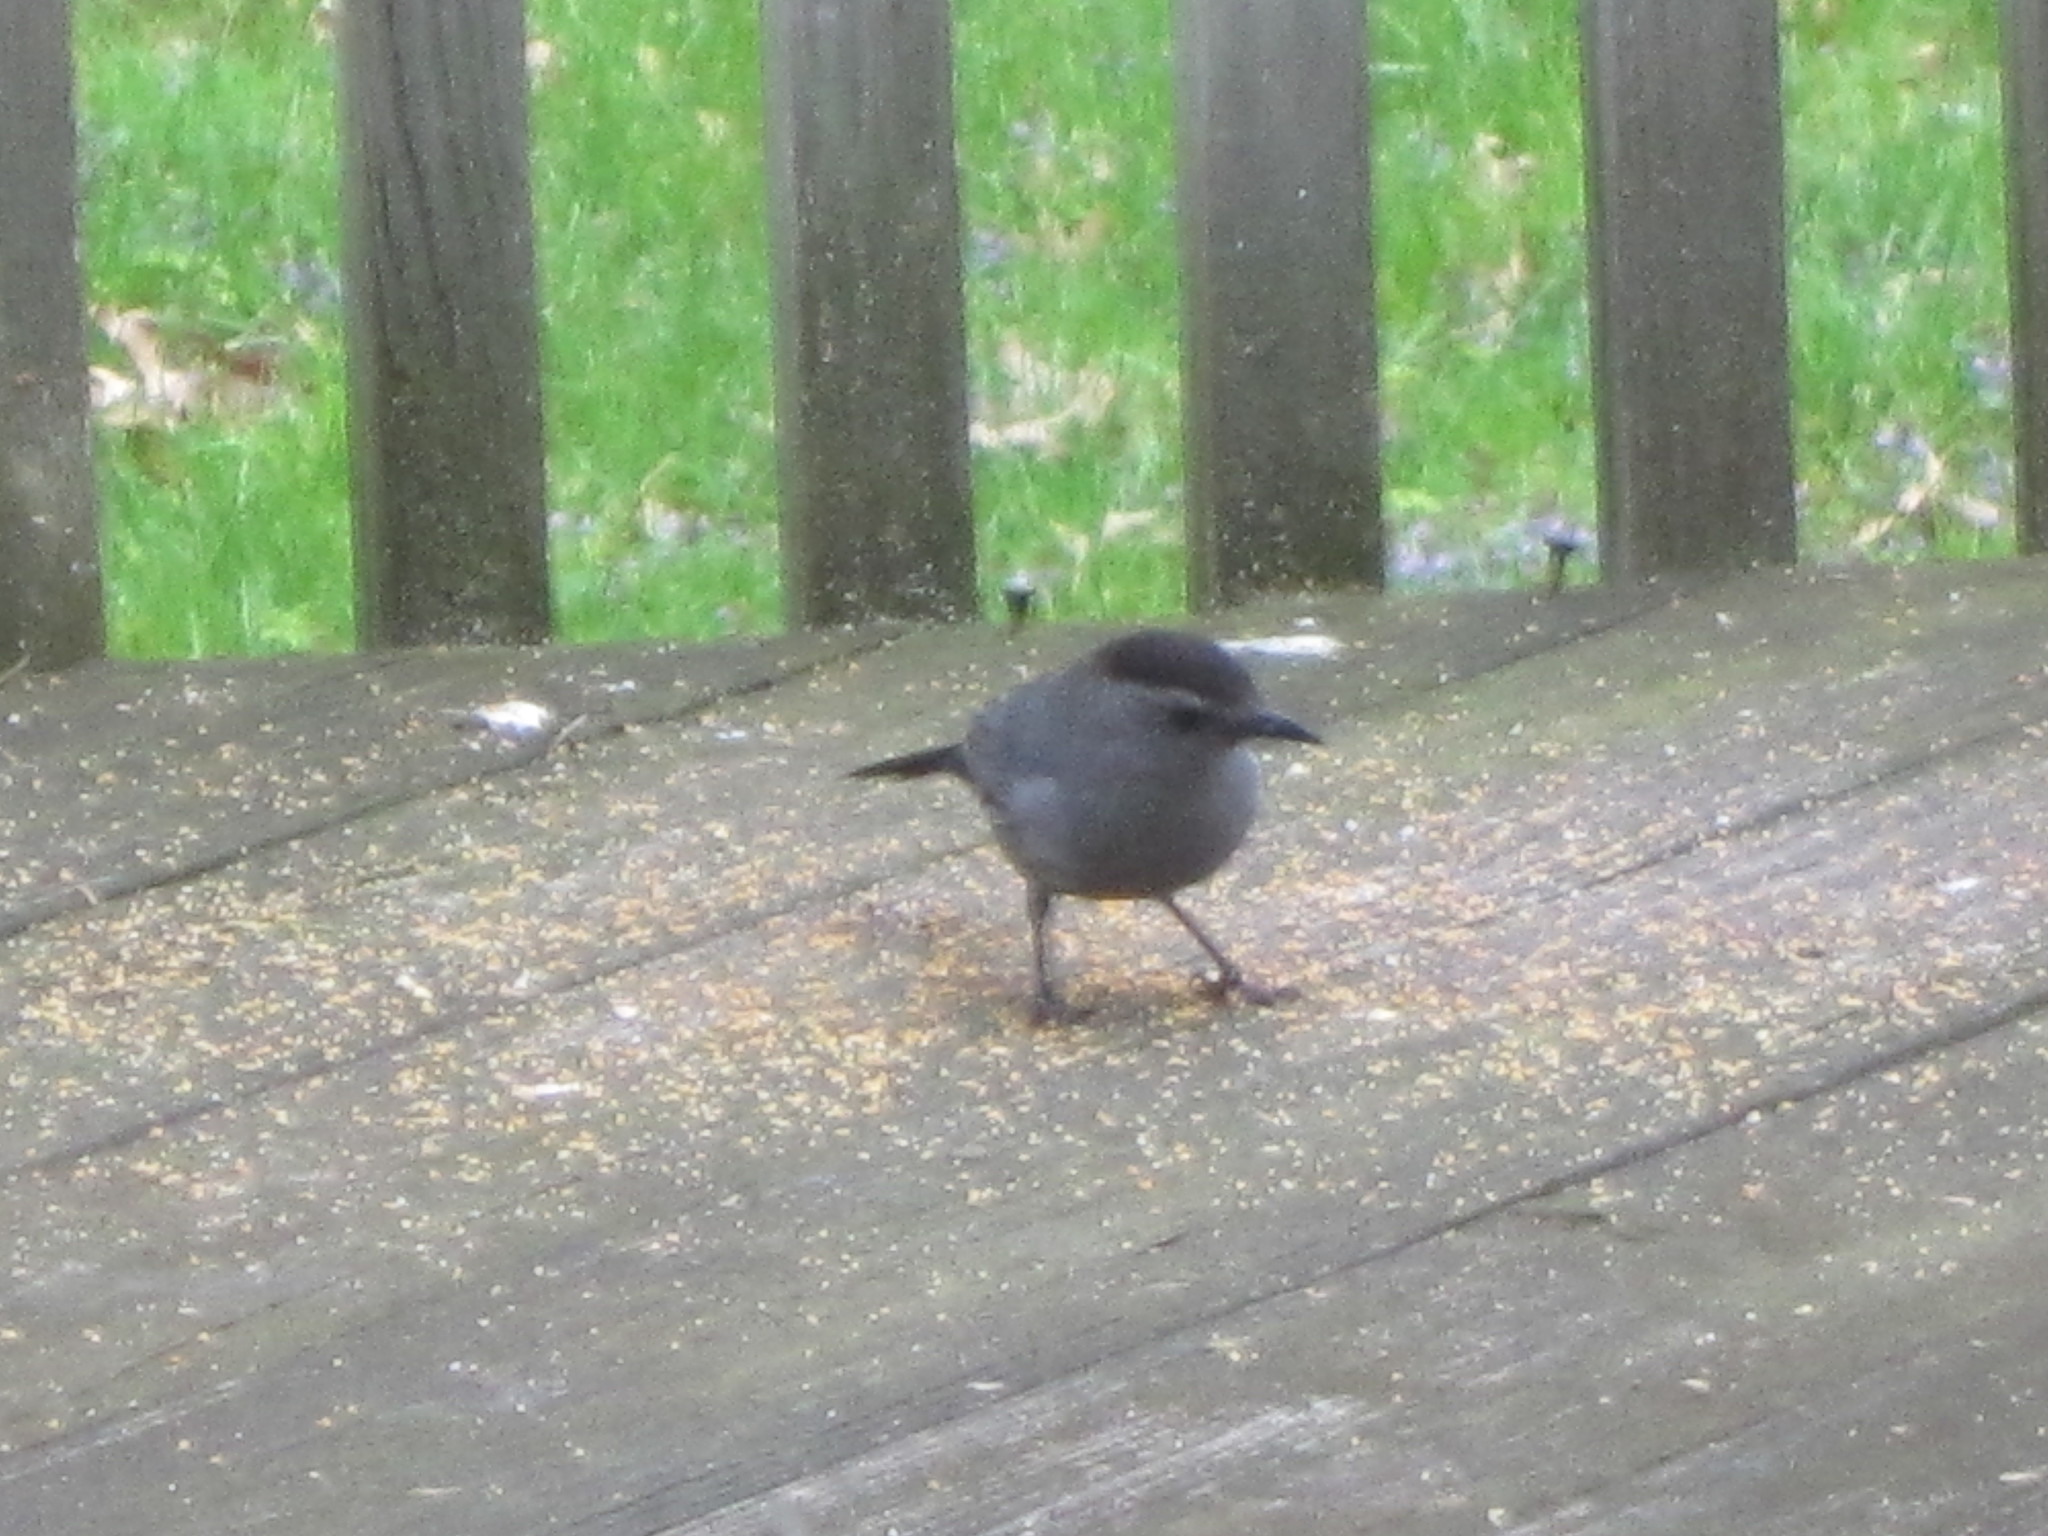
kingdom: Animalia
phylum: Chordata
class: Aves
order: Passeriformes
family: Mimidae
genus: Dumetella
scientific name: Dumetella carolinensis
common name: Gray catbird
